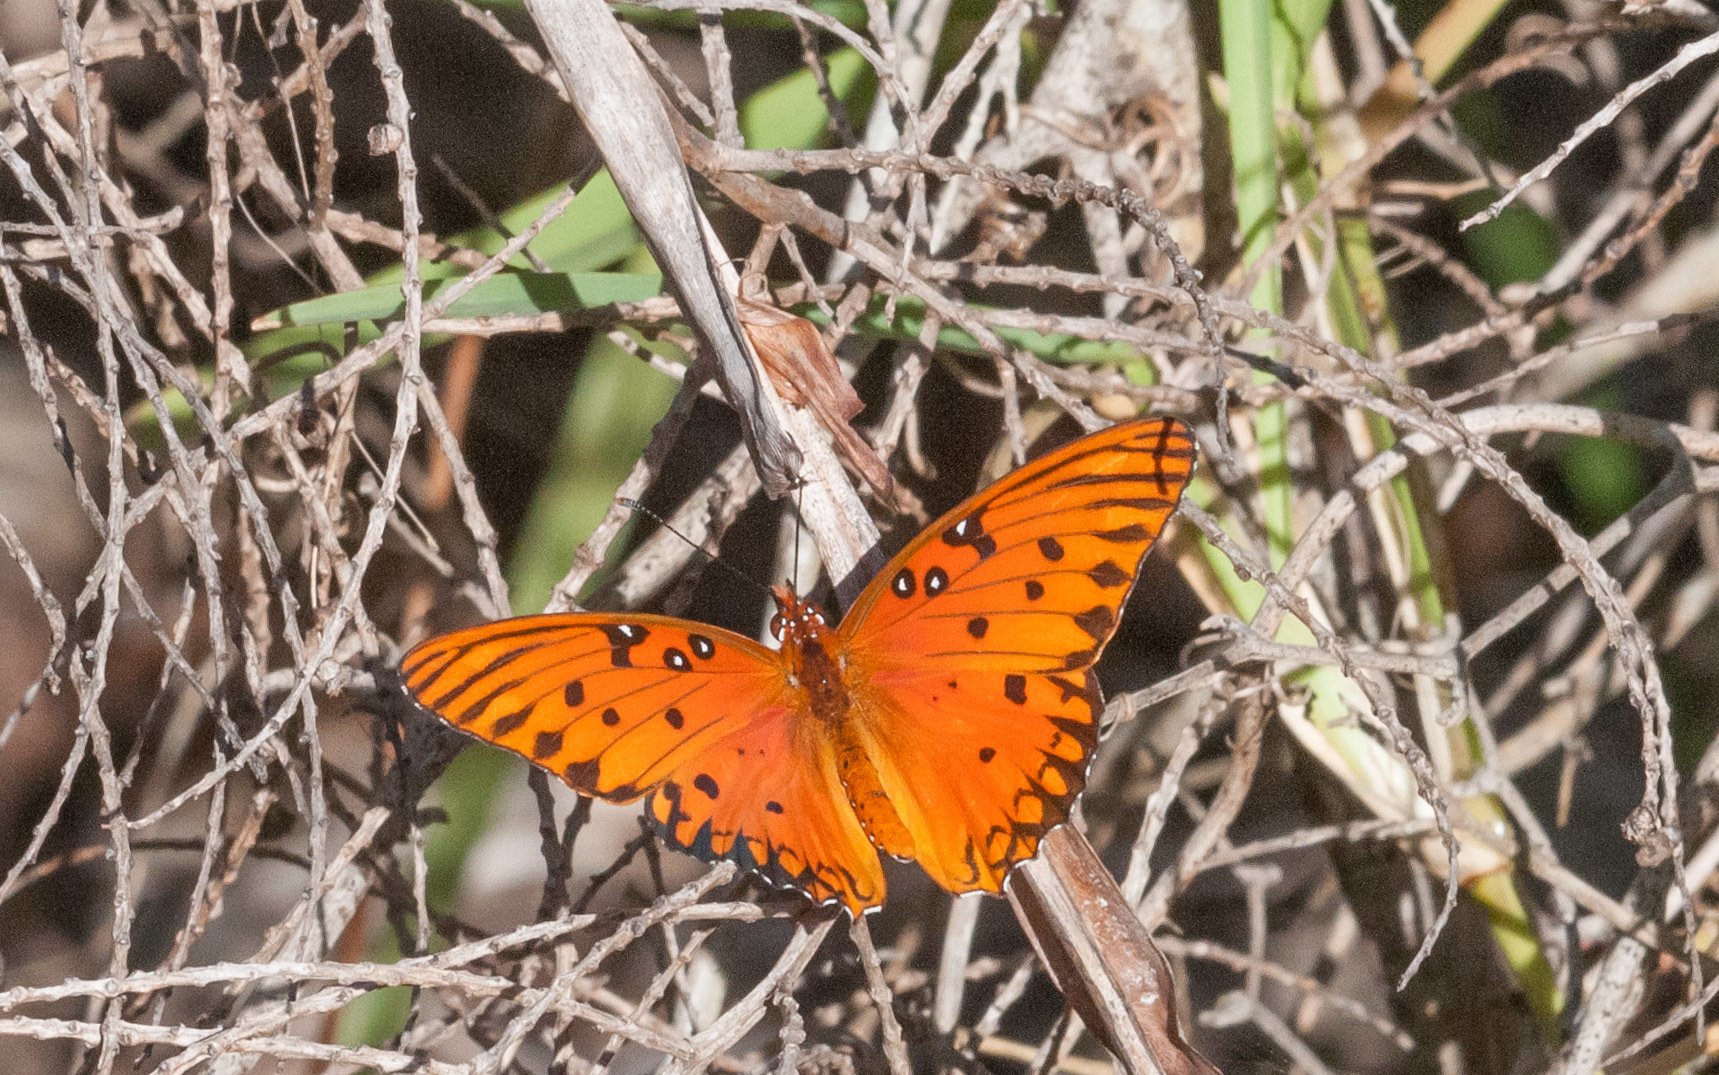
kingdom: Animalia
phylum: Arthropoda
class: Insecta
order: Lepidoptera
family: Nymphalidae
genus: Dione
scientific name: Dione vanillae
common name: Gulf fritillary
